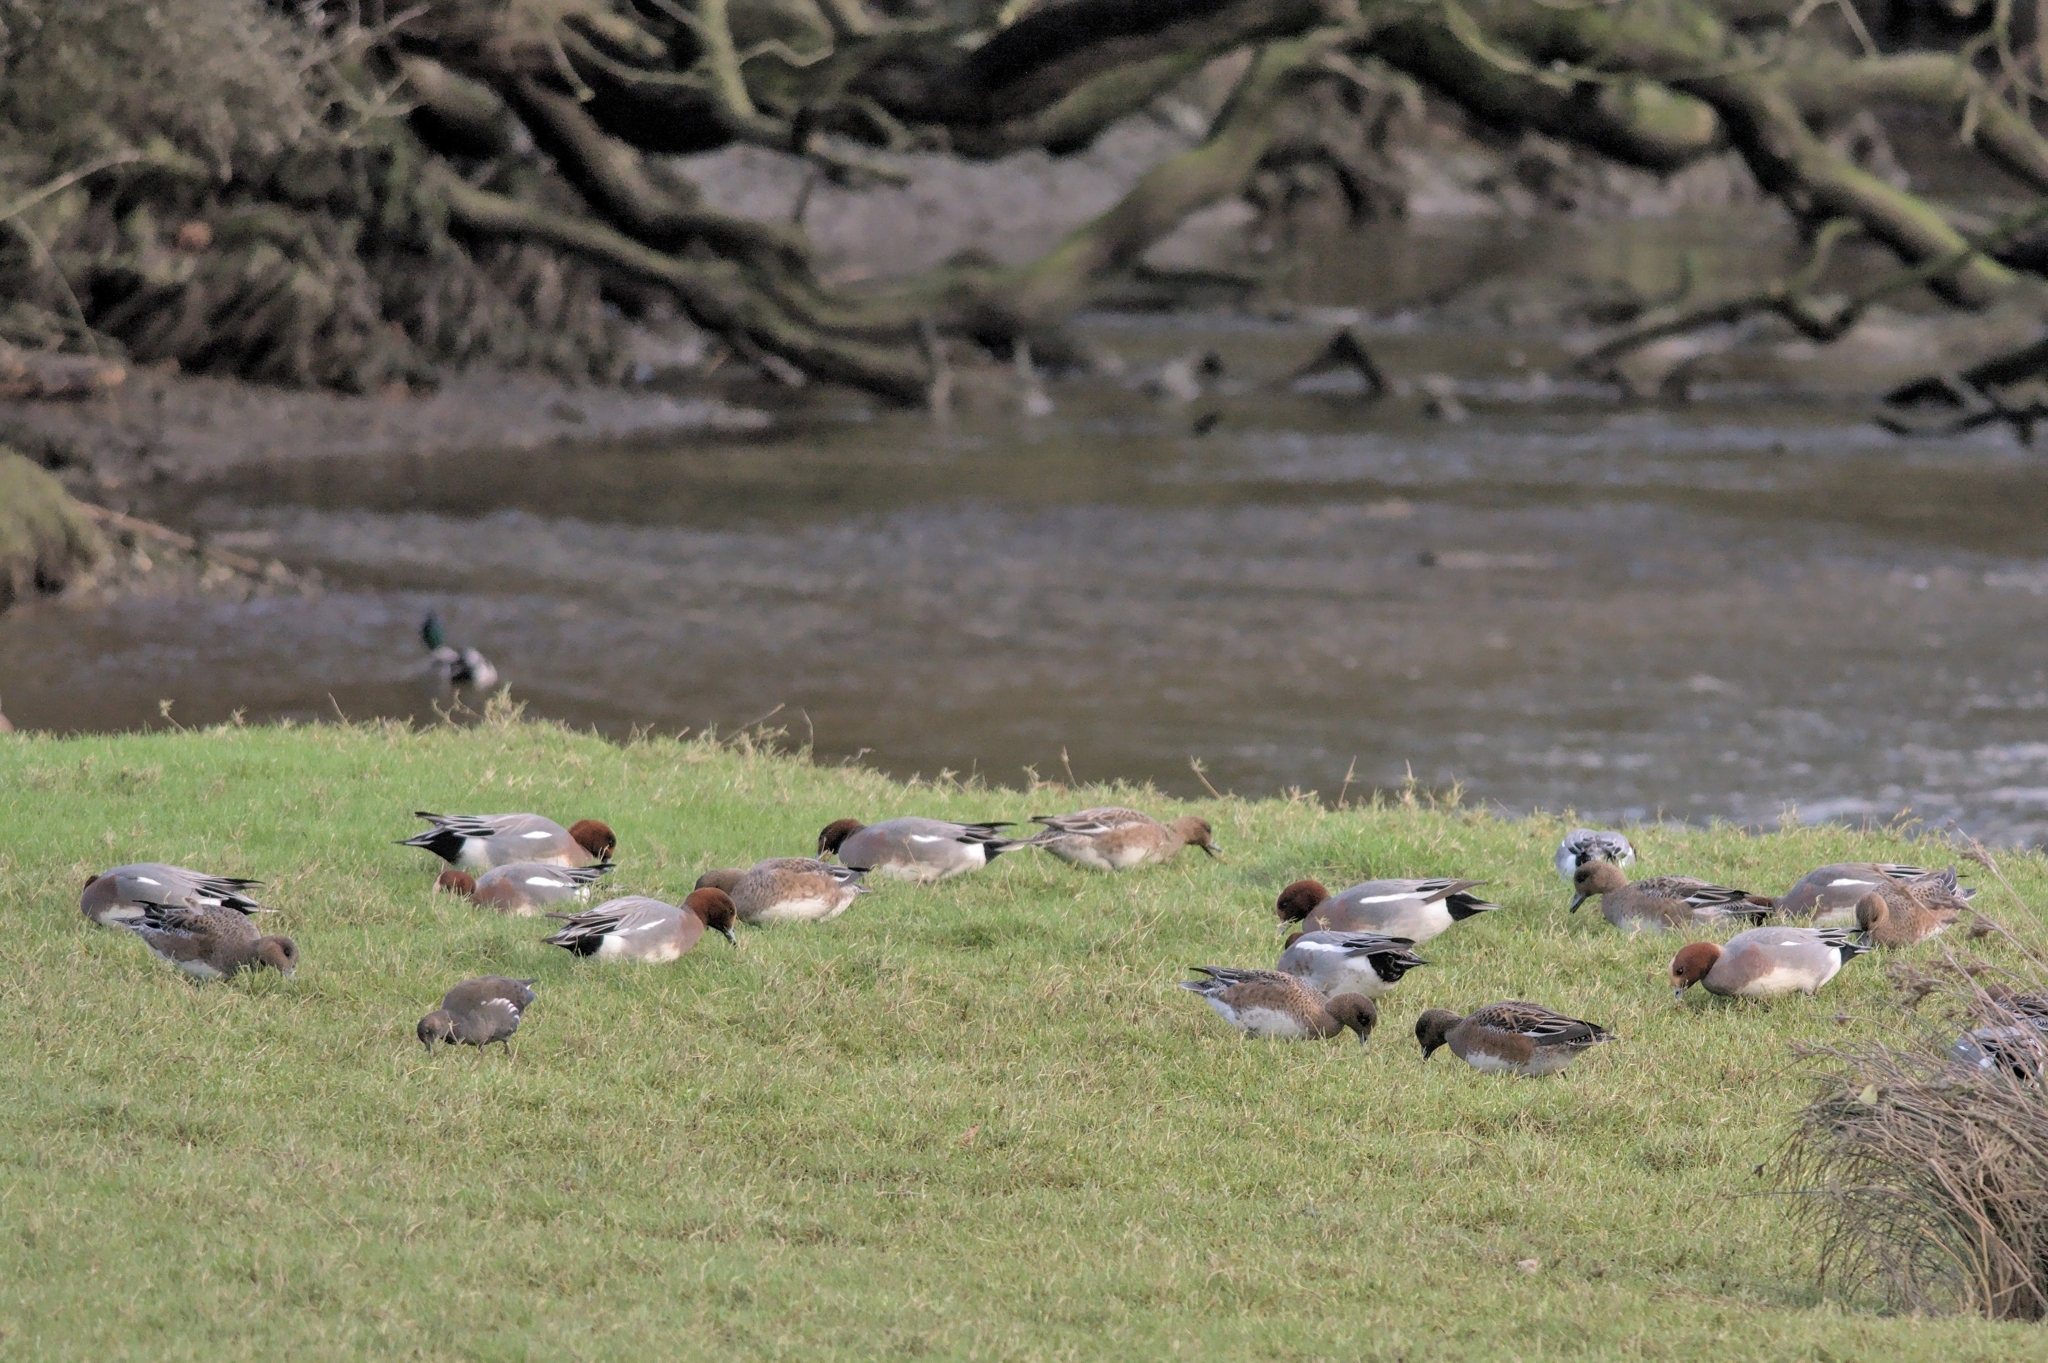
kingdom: Animalia
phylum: Chordata
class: Aves
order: Anseriformes
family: Anatidae
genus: Mareca
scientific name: Mareca penelope
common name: Eurasian wigeon
